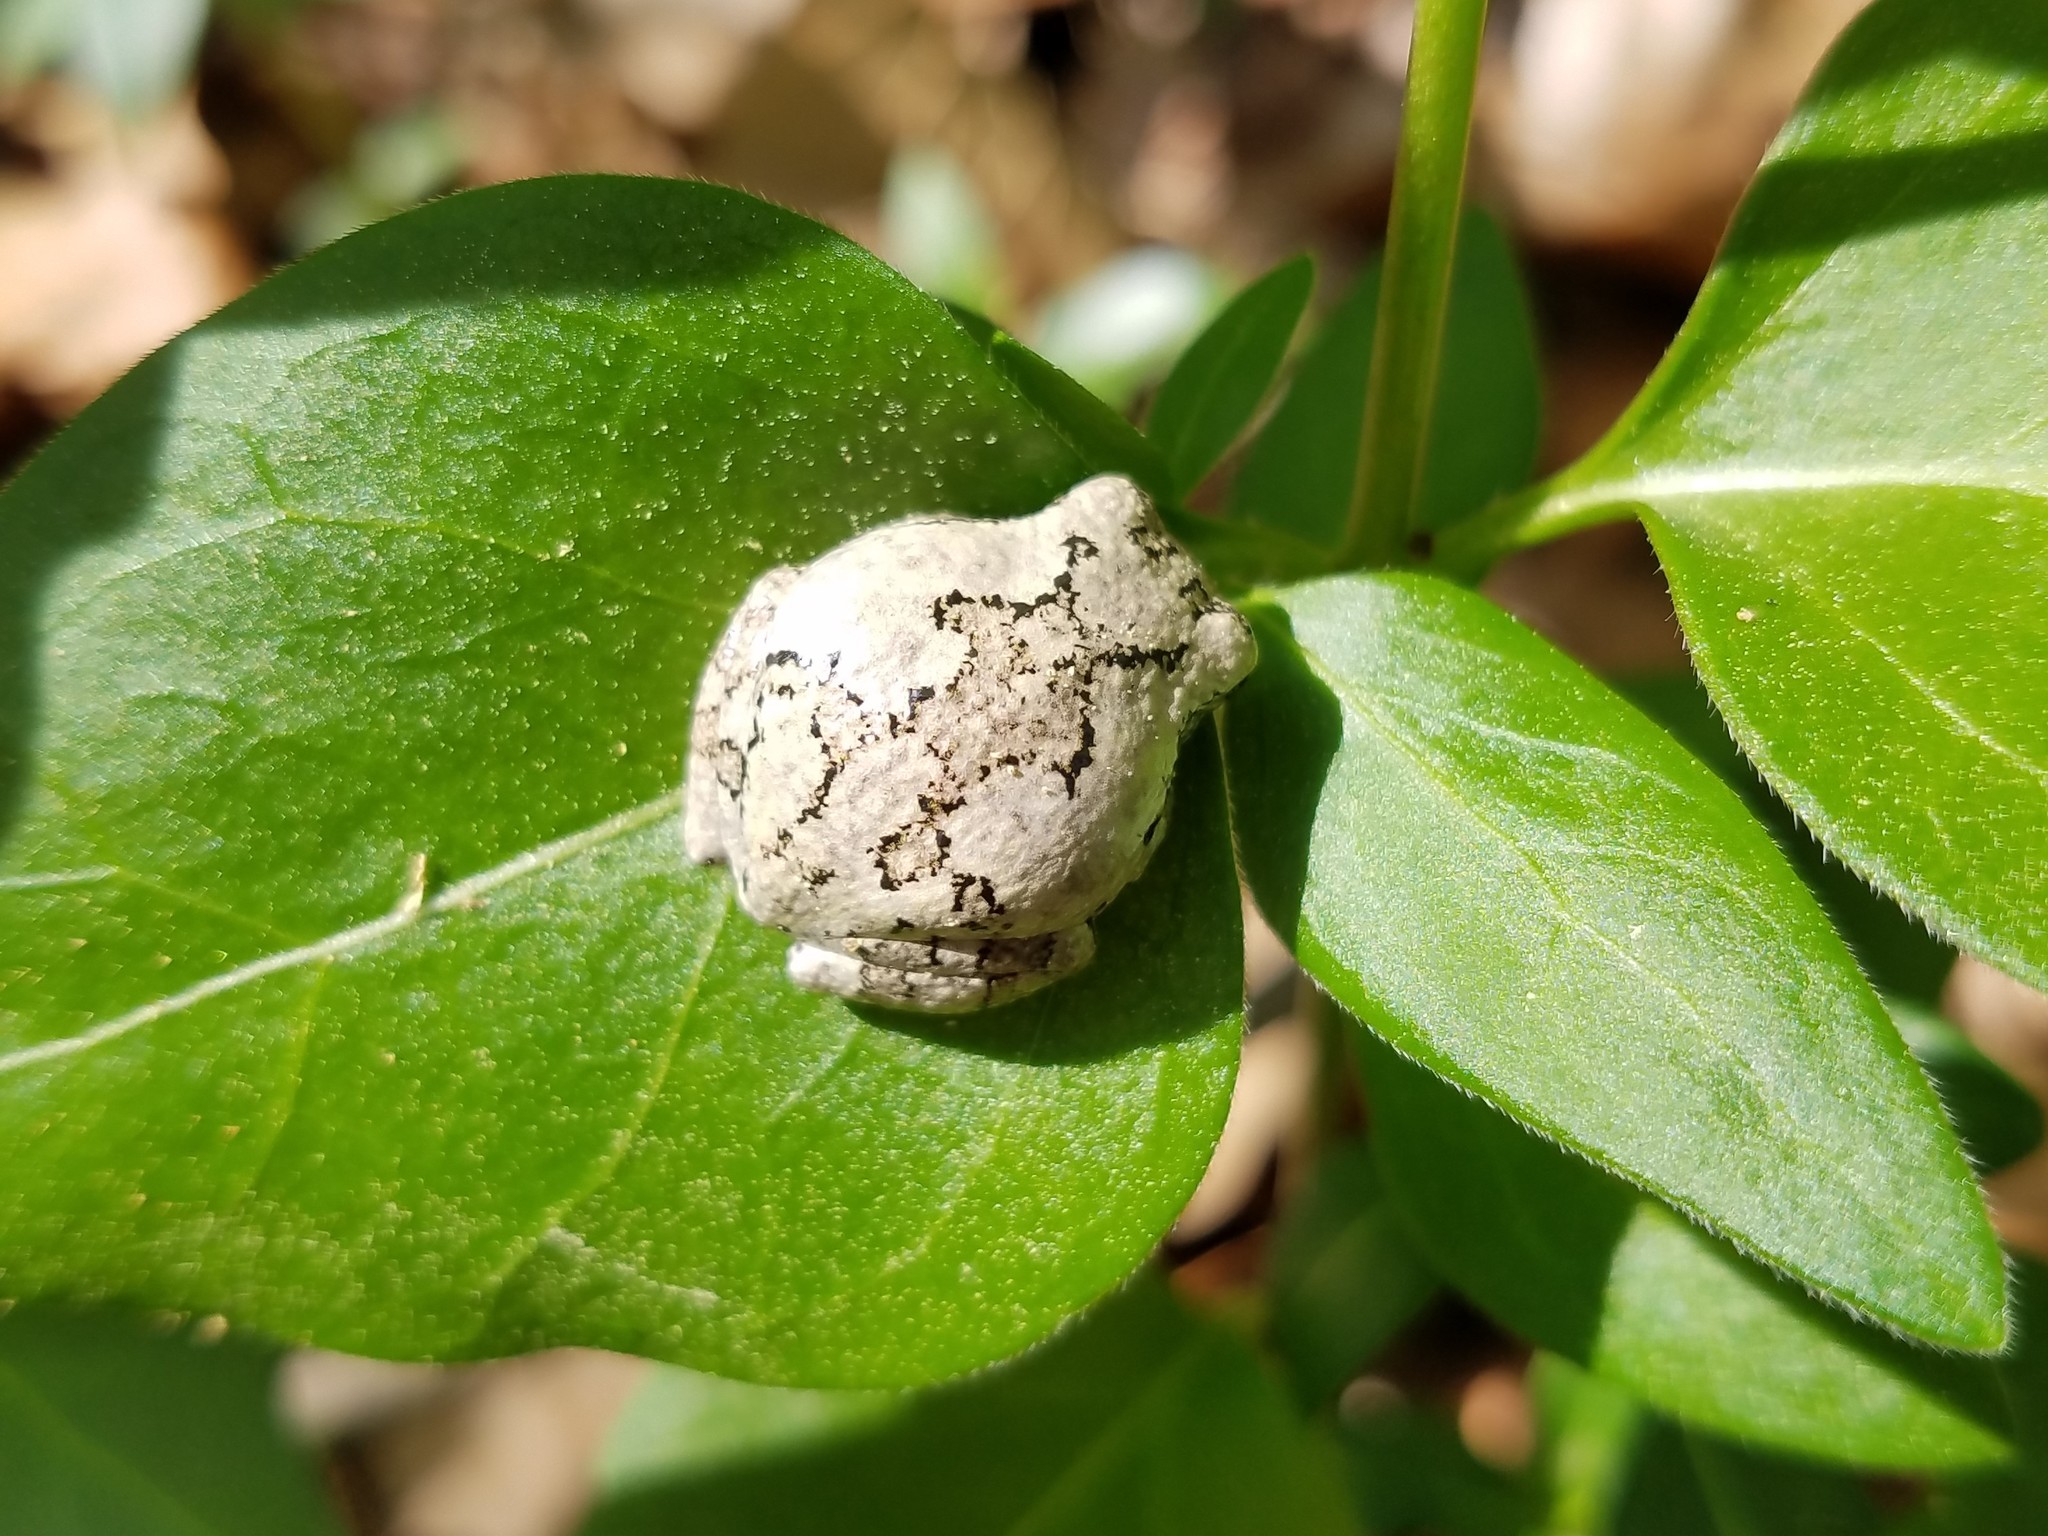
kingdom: Animalia
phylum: Chordata
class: Amphibia
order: Anura
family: Hylidae
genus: Dryophytes
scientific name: Dryophytes chrysoscelis
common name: Cope's gray treefrog
